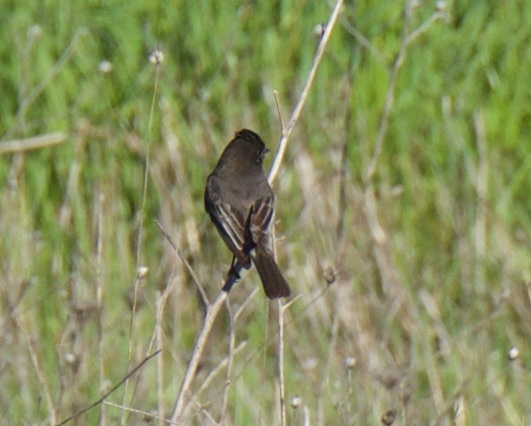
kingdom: Animalia
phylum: Chordata
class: Aves
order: Passeriformes
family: Tyrannidae
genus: Sayornis
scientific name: Sayornis nigricans
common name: Black phoebe
